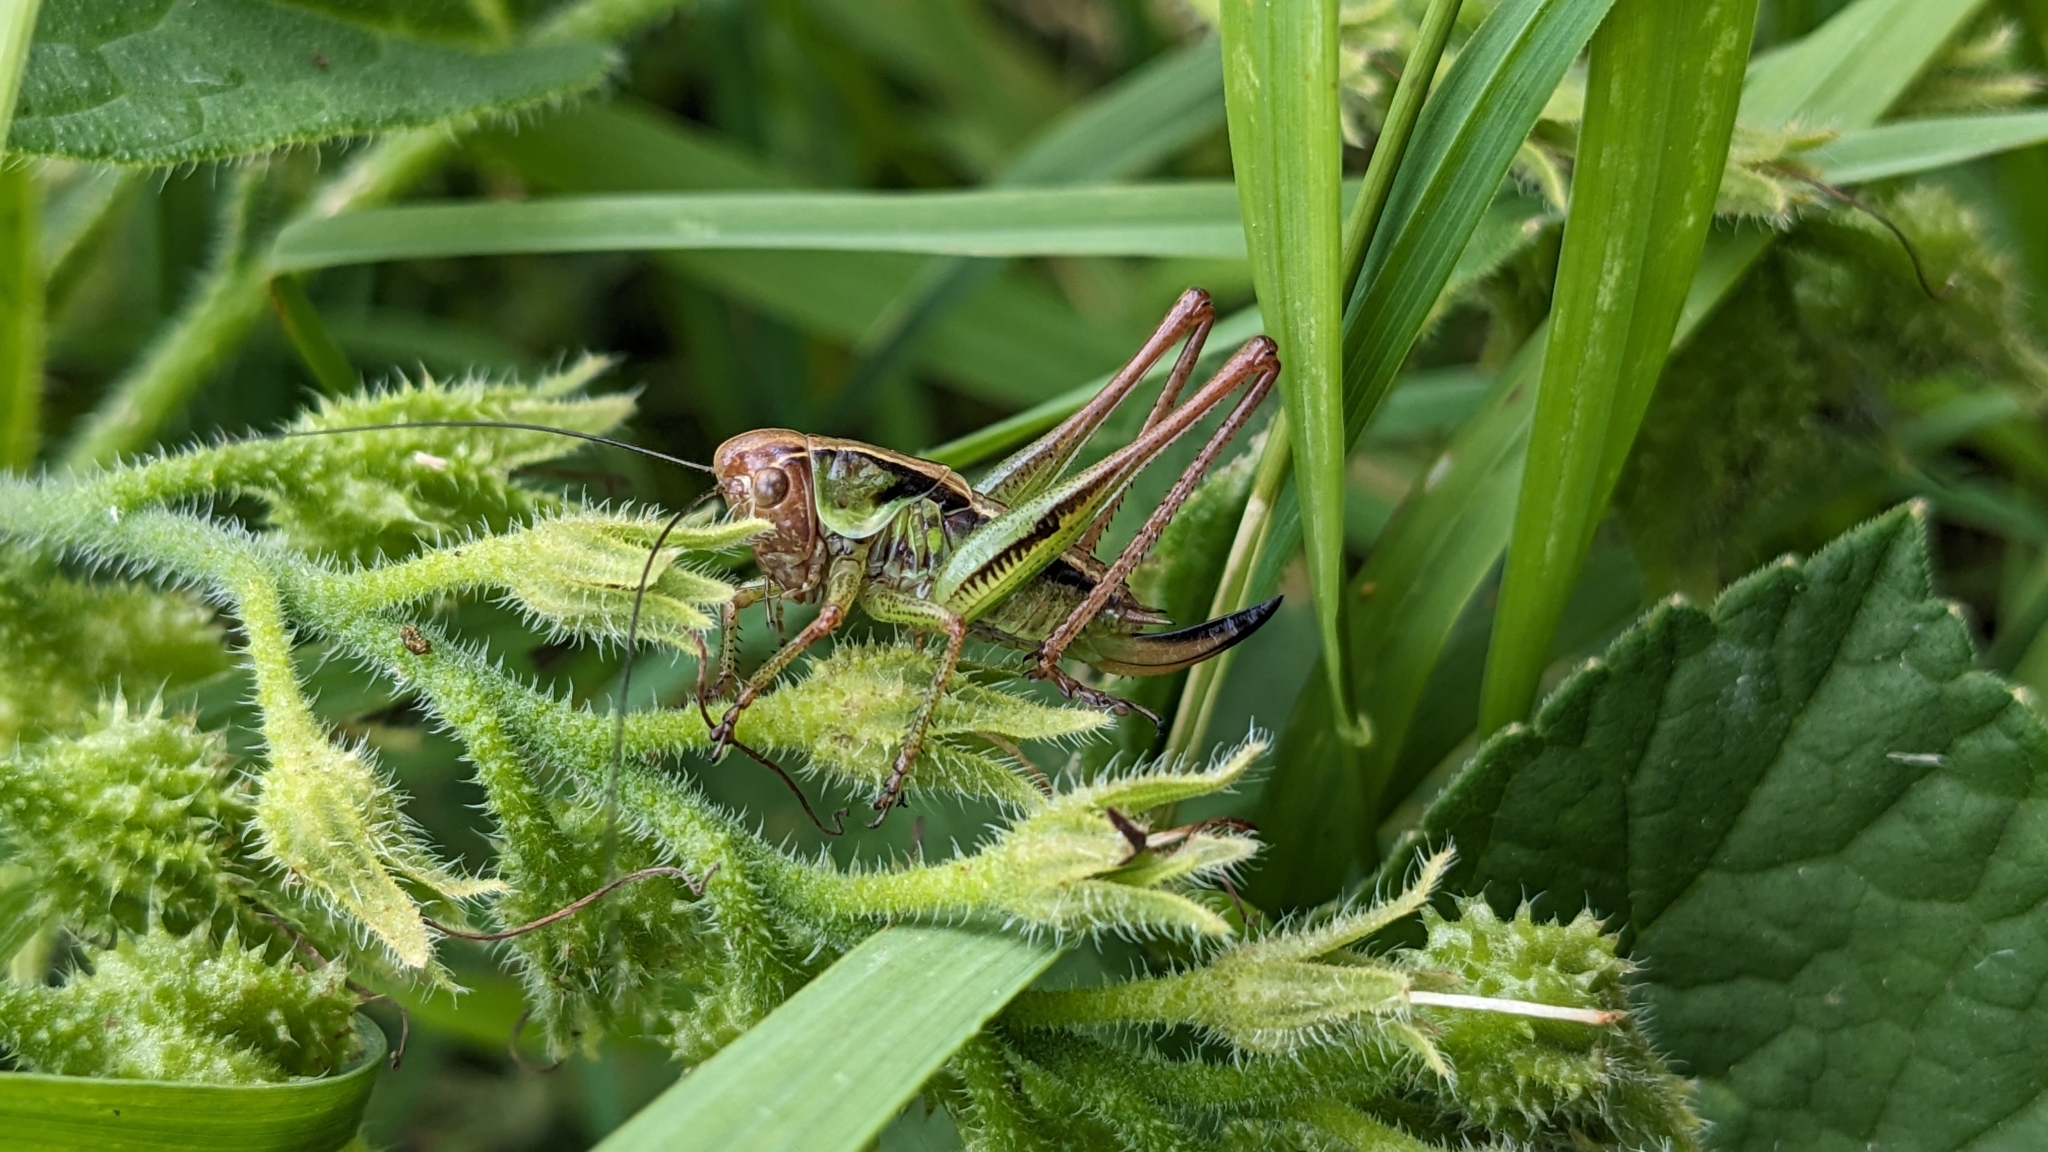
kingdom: Animalia
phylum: Arthropoda
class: Insecta
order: Orthoptera
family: Tettigoniidae
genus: Roeseliana
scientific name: Roeseliana roeselii
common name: Roesel's bush cricket
